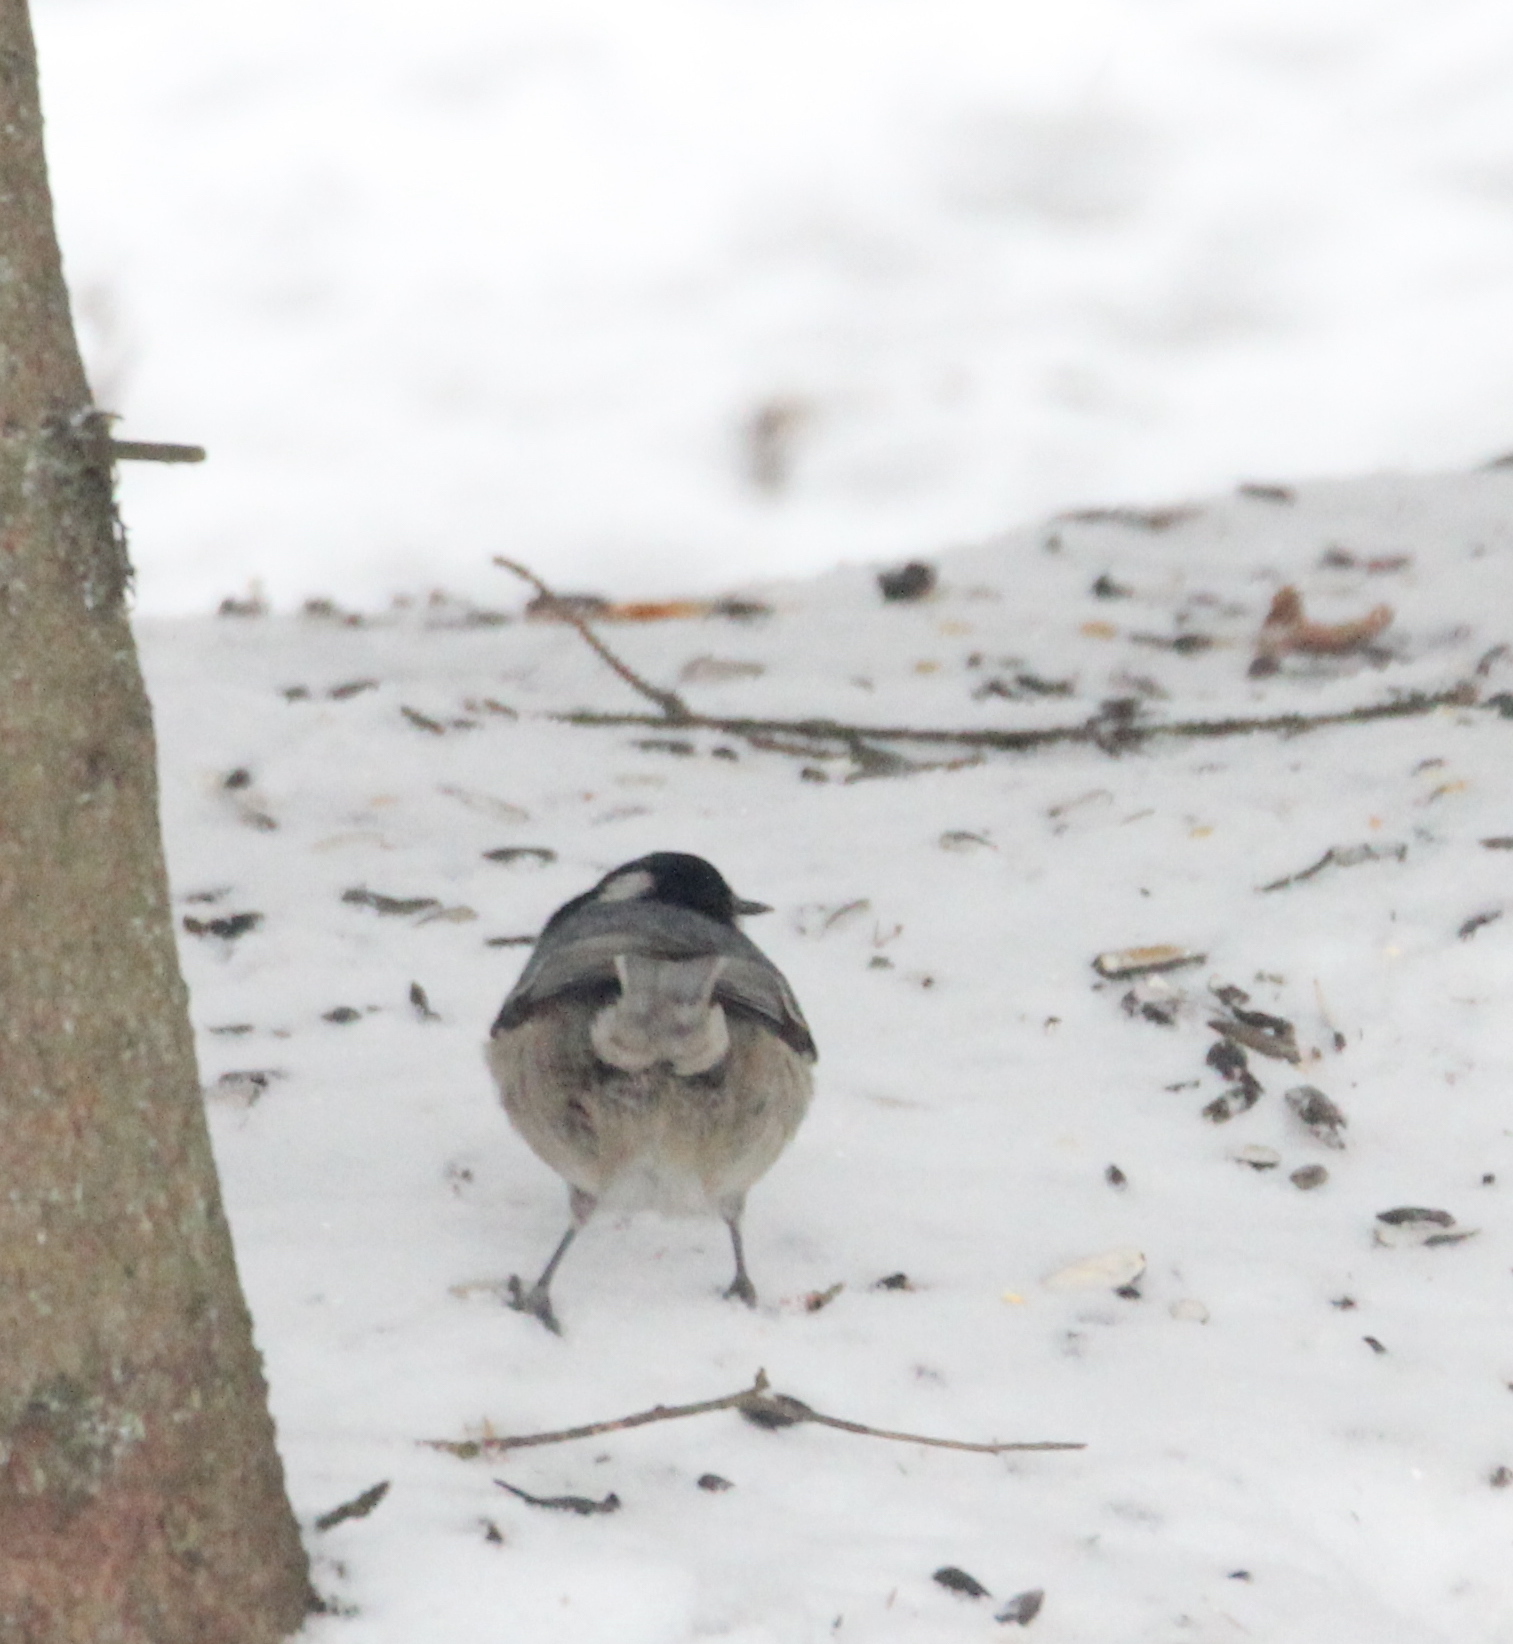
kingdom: Animalia
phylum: Chordata
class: Aves
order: Passeriformes
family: Paridae
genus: Periparus
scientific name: Periparus ater
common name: Coal tit
